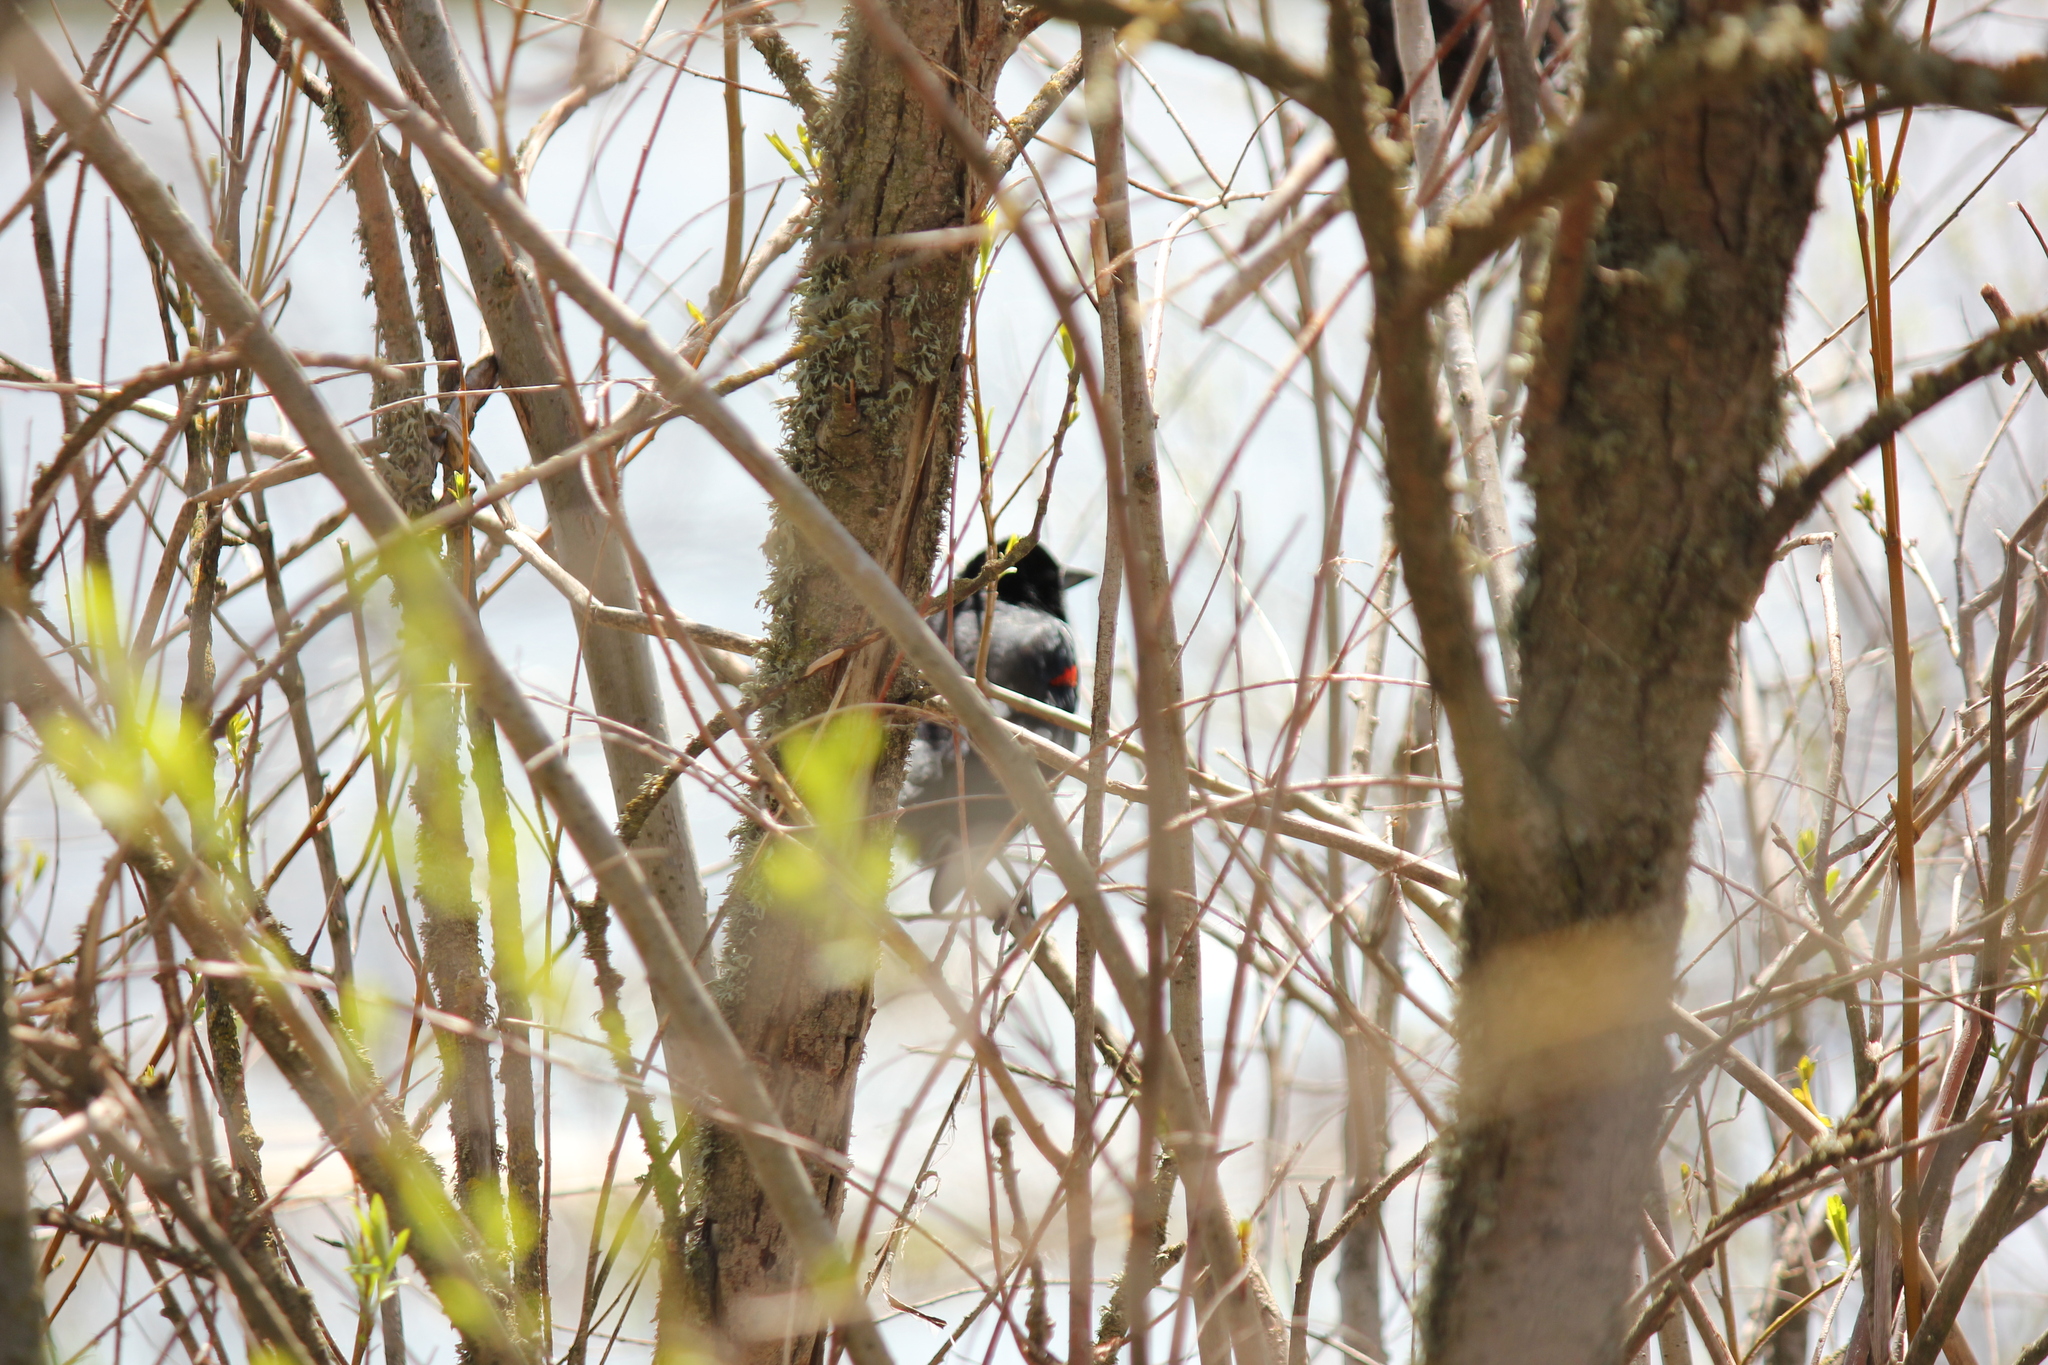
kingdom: Animalia
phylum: Chordata
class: Aves
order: Passeriformes
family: Icteridae
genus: Agelaius
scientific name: Agelaius phoeniceus
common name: Red-winged blackbird
